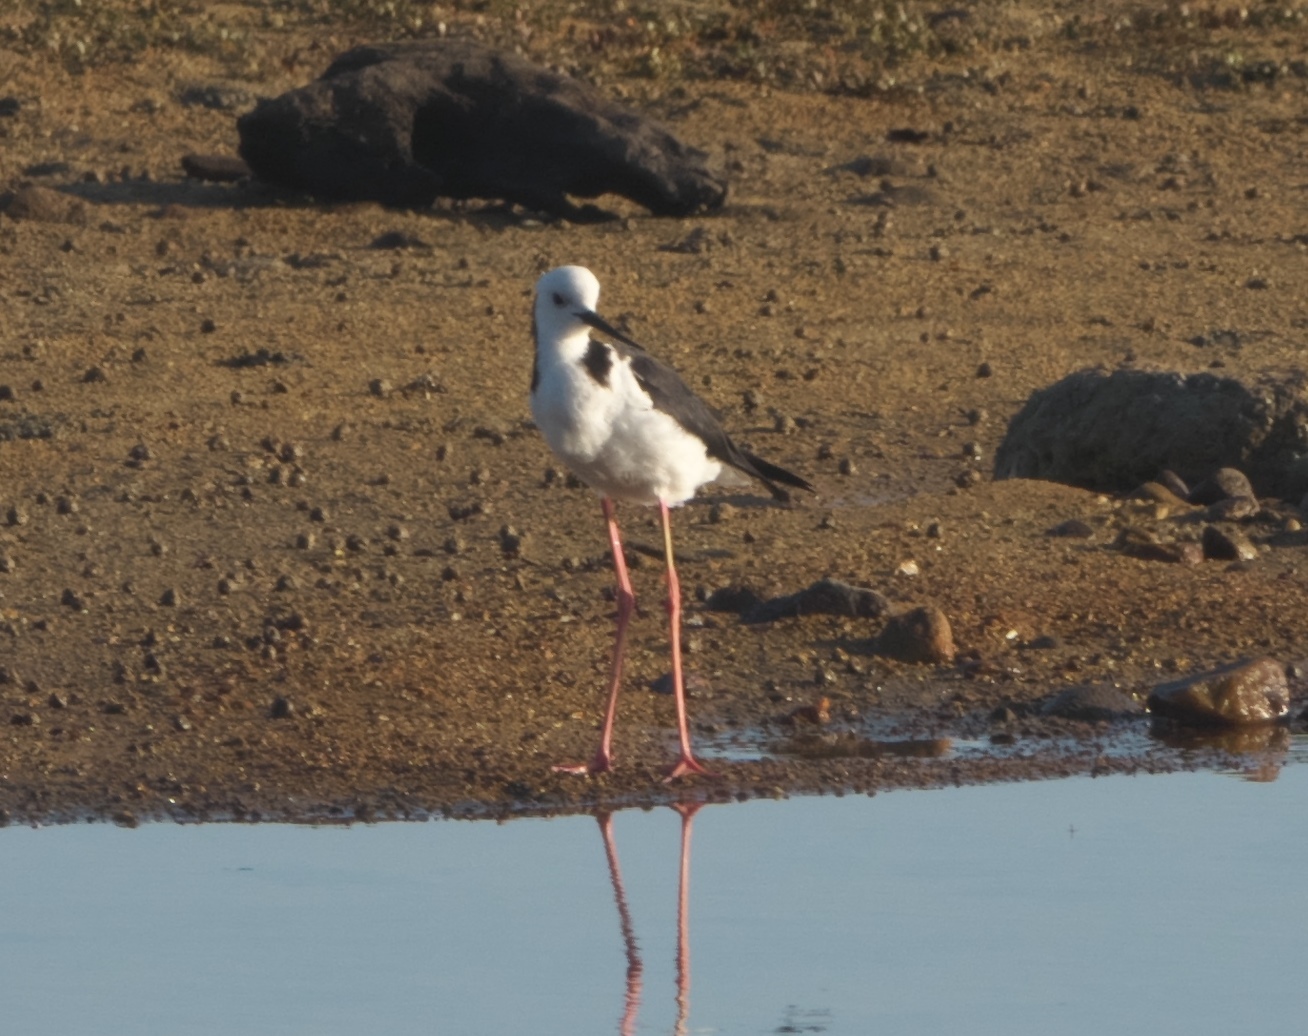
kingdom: Animalia
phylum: Chordata
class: Aves
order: Charadriiformes
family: Recurvirostridae
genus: Himantopus
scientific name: Himantopus leucocephalus
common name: White-headed stilt
